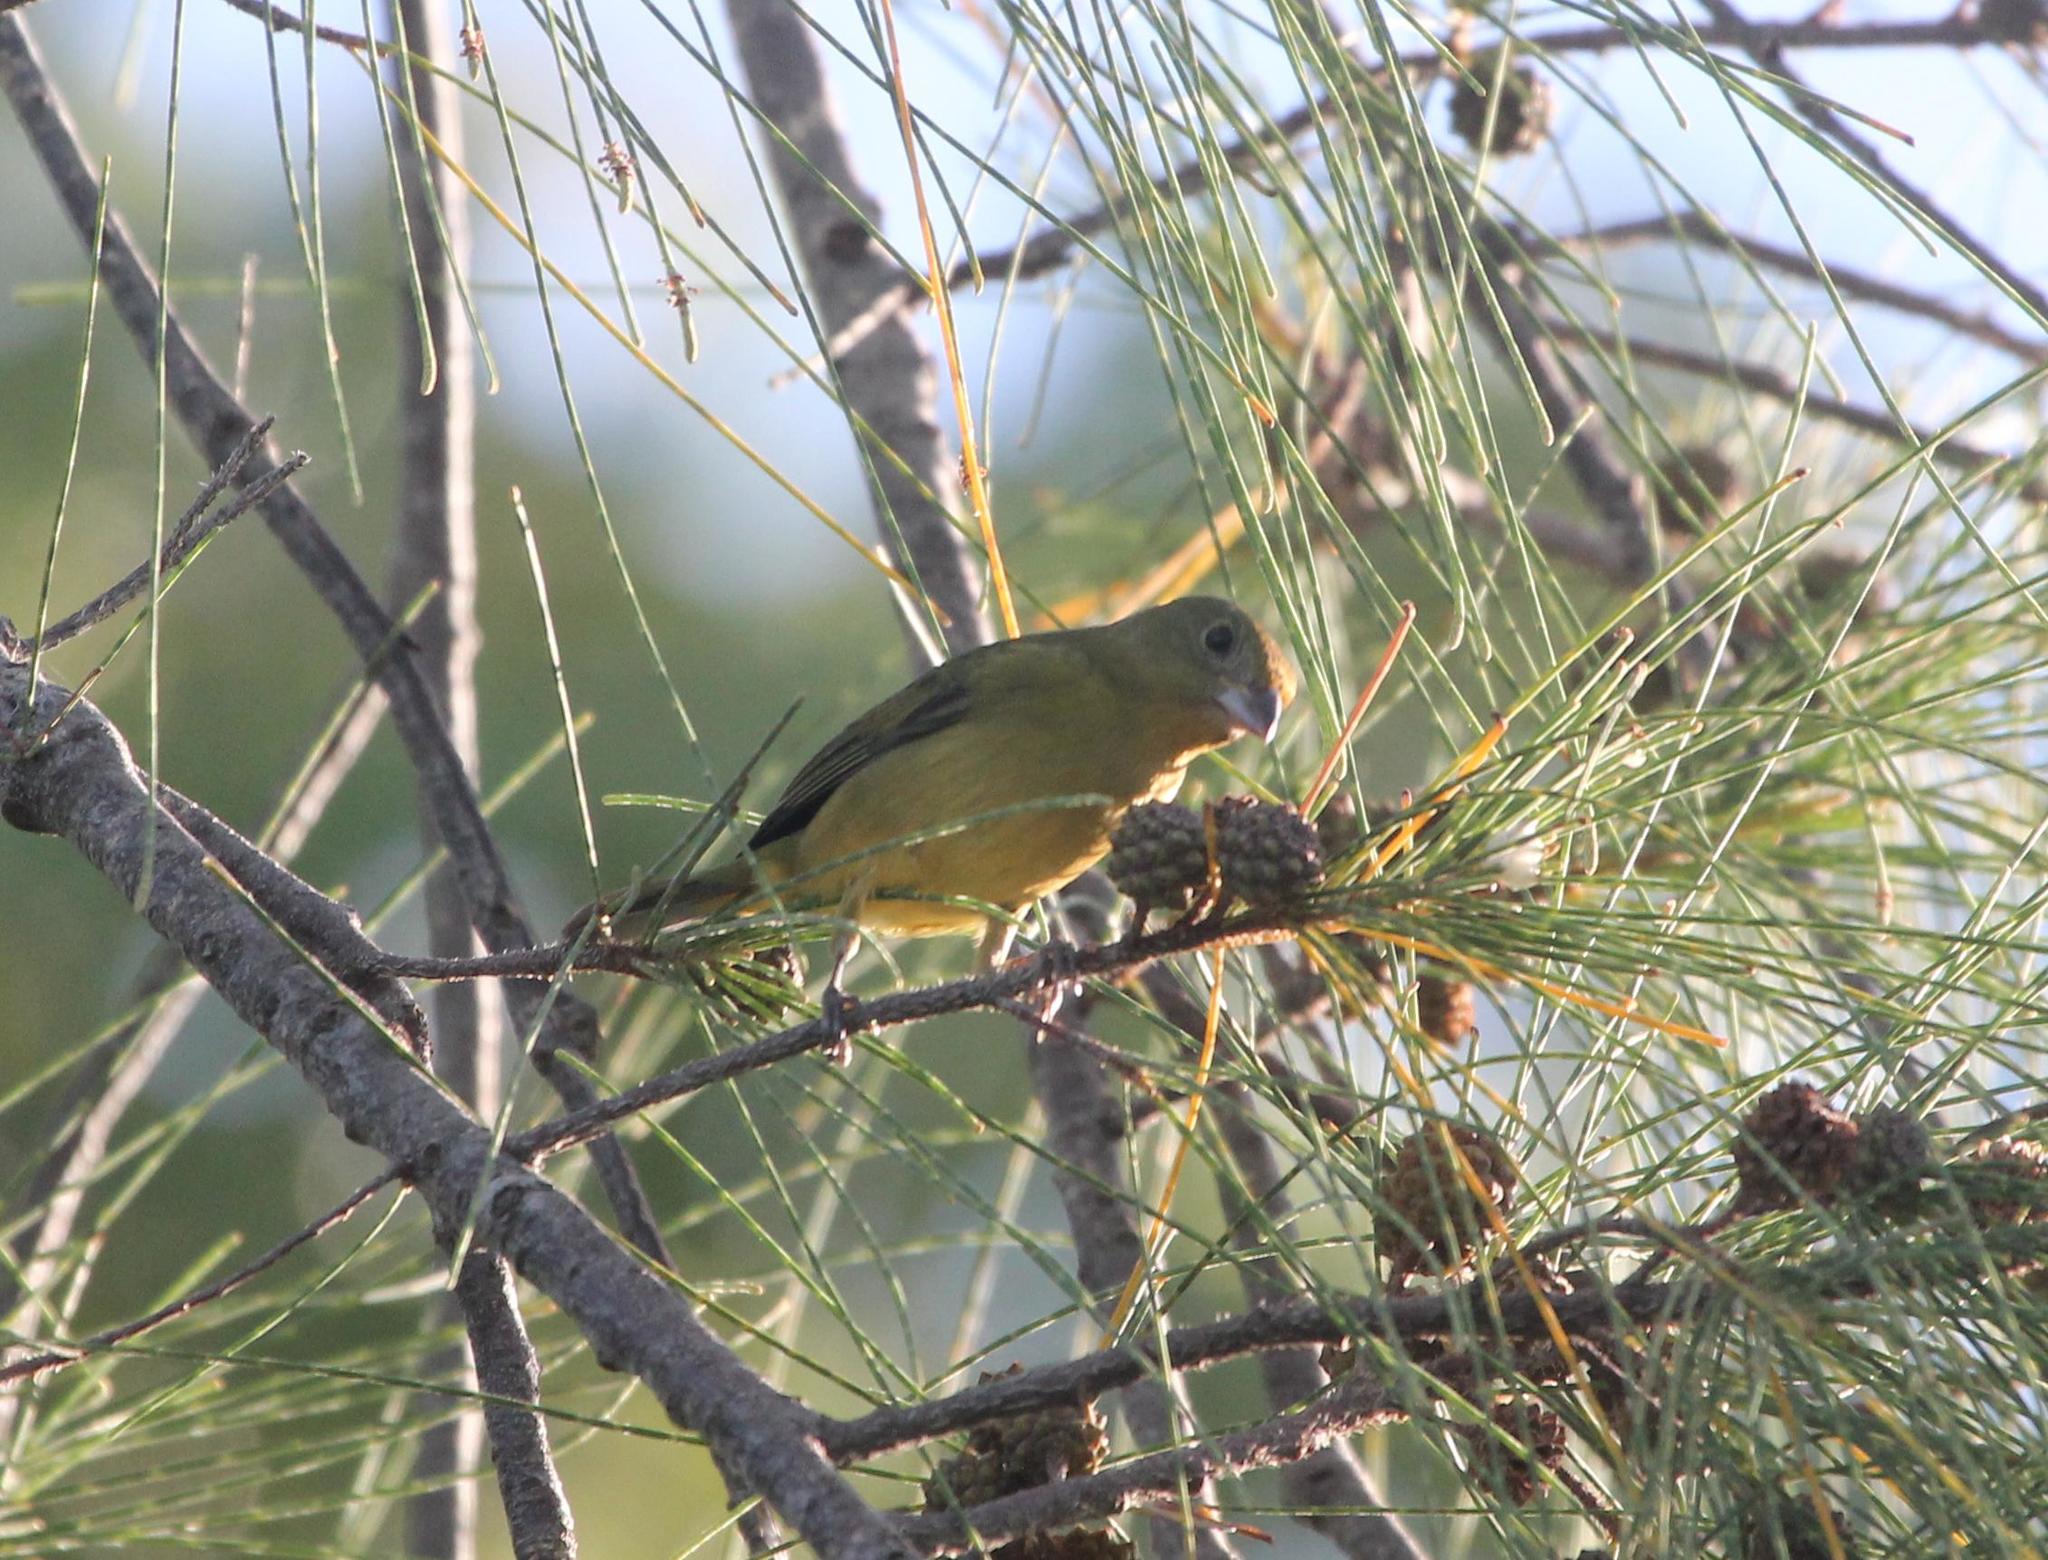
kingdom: Animalia
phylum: Chordata
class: Aves
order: Passeriformes
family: Cardinalidae
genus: Passerina
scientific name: Passerina ciris
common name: Painted bunting
